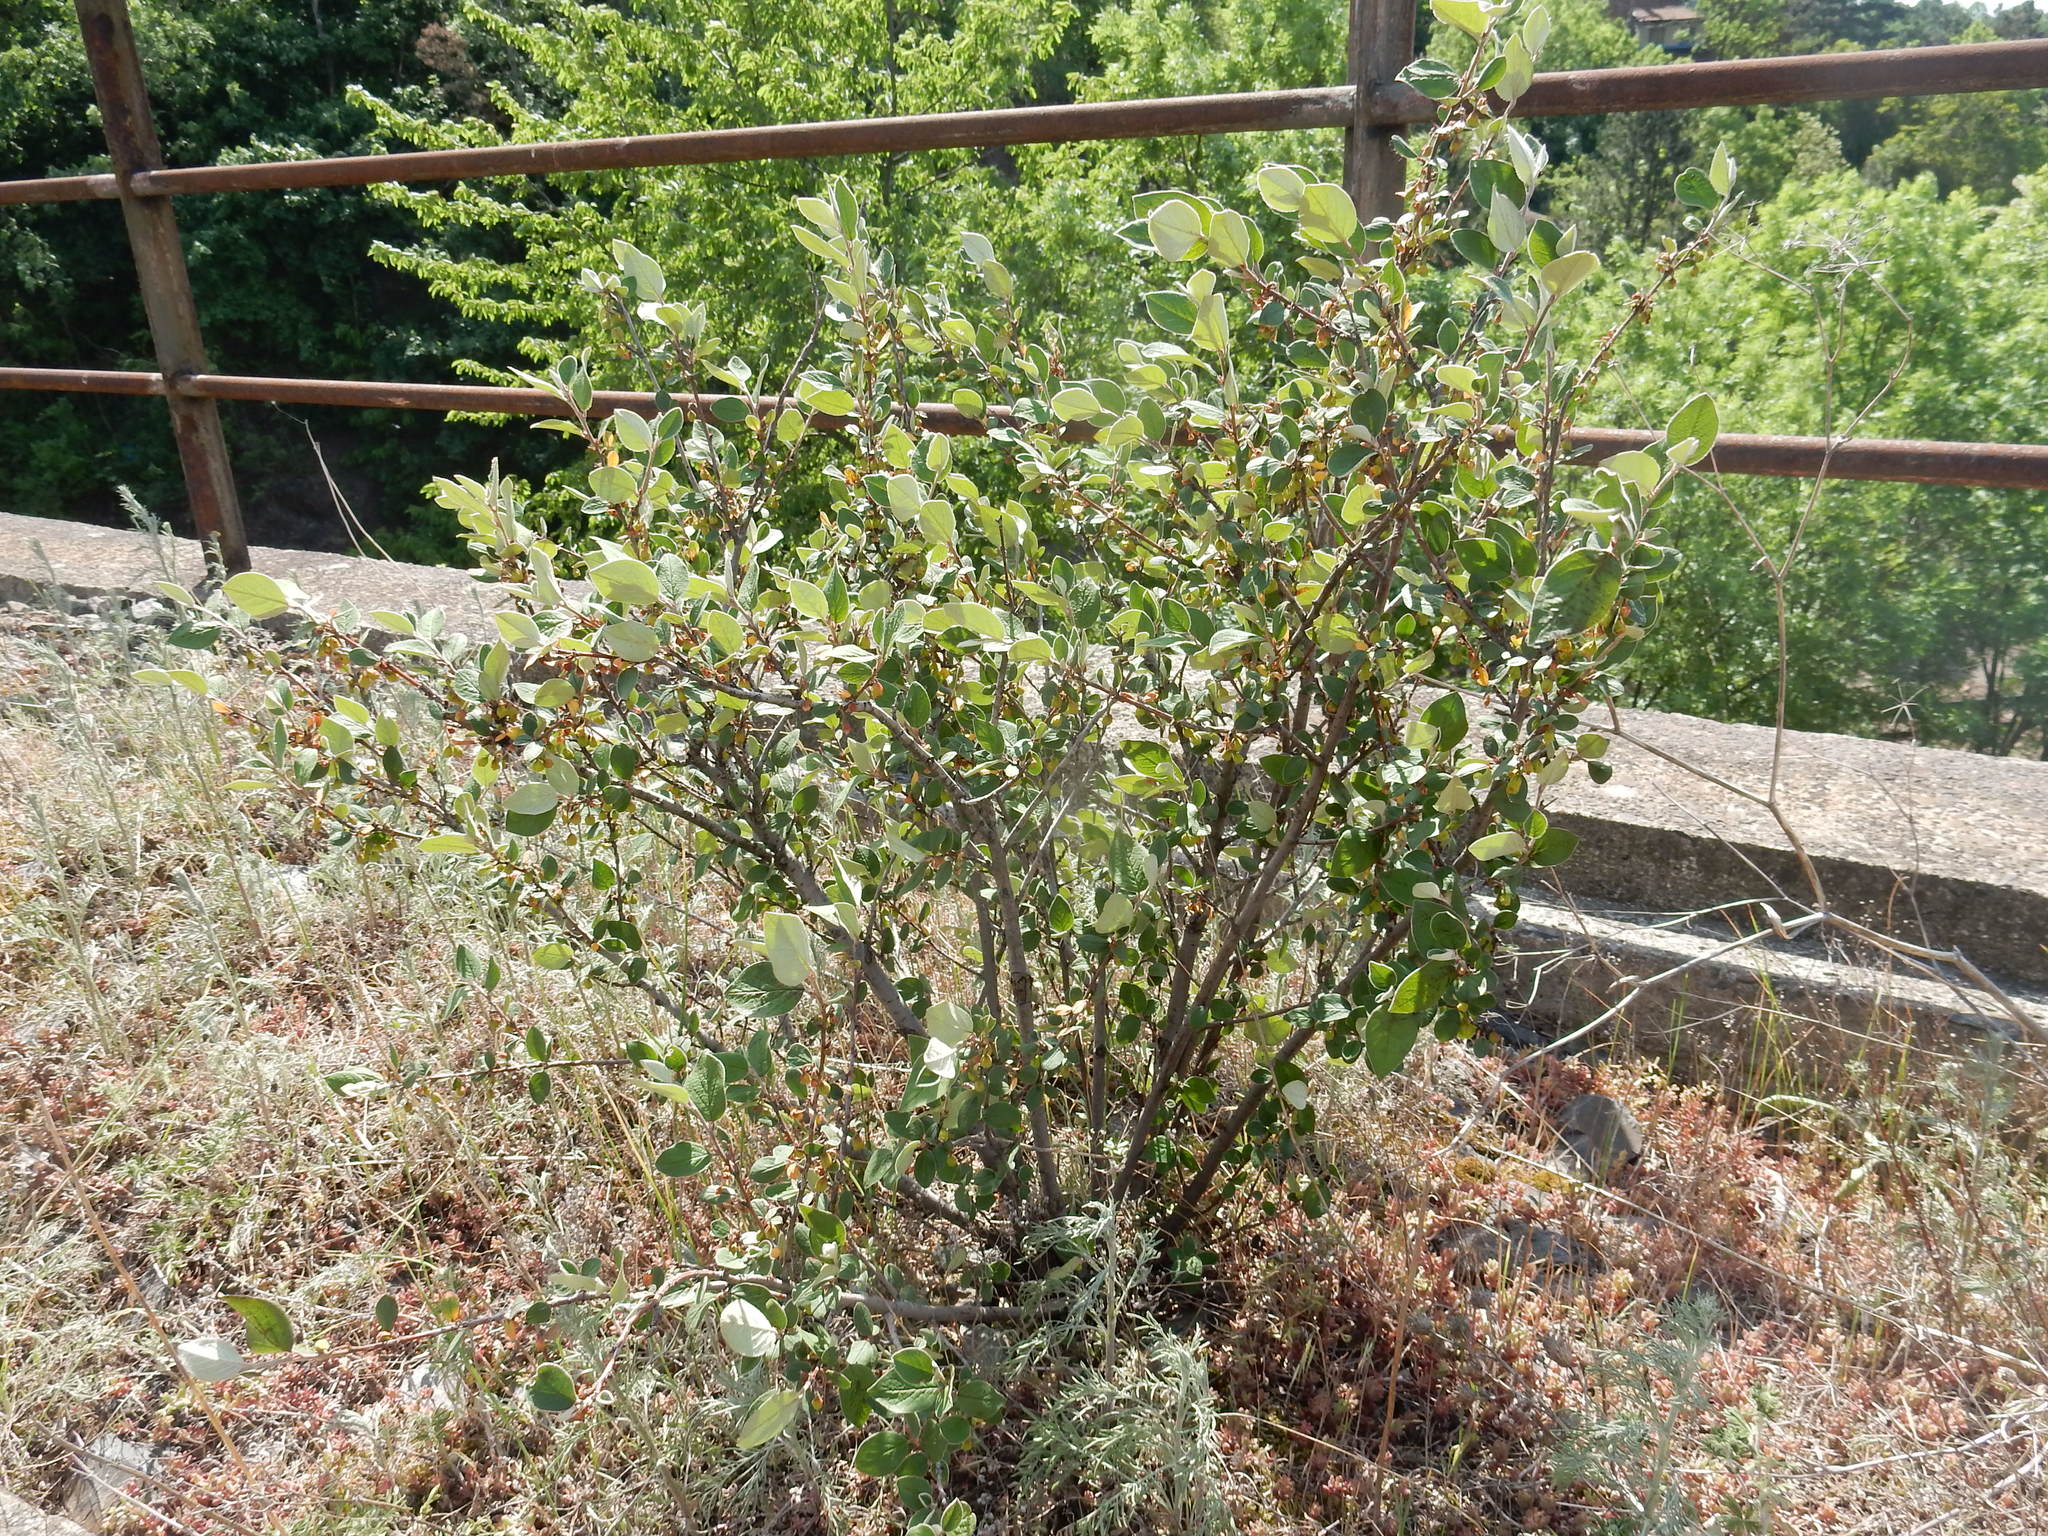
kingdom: Plantae
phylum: Tracheophyta
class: Magnoliopsida
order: Rosales
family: Rosaceae
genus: Cotoneaster
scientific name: Cotoneaster integerrimus
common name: Wild cotoneaster
